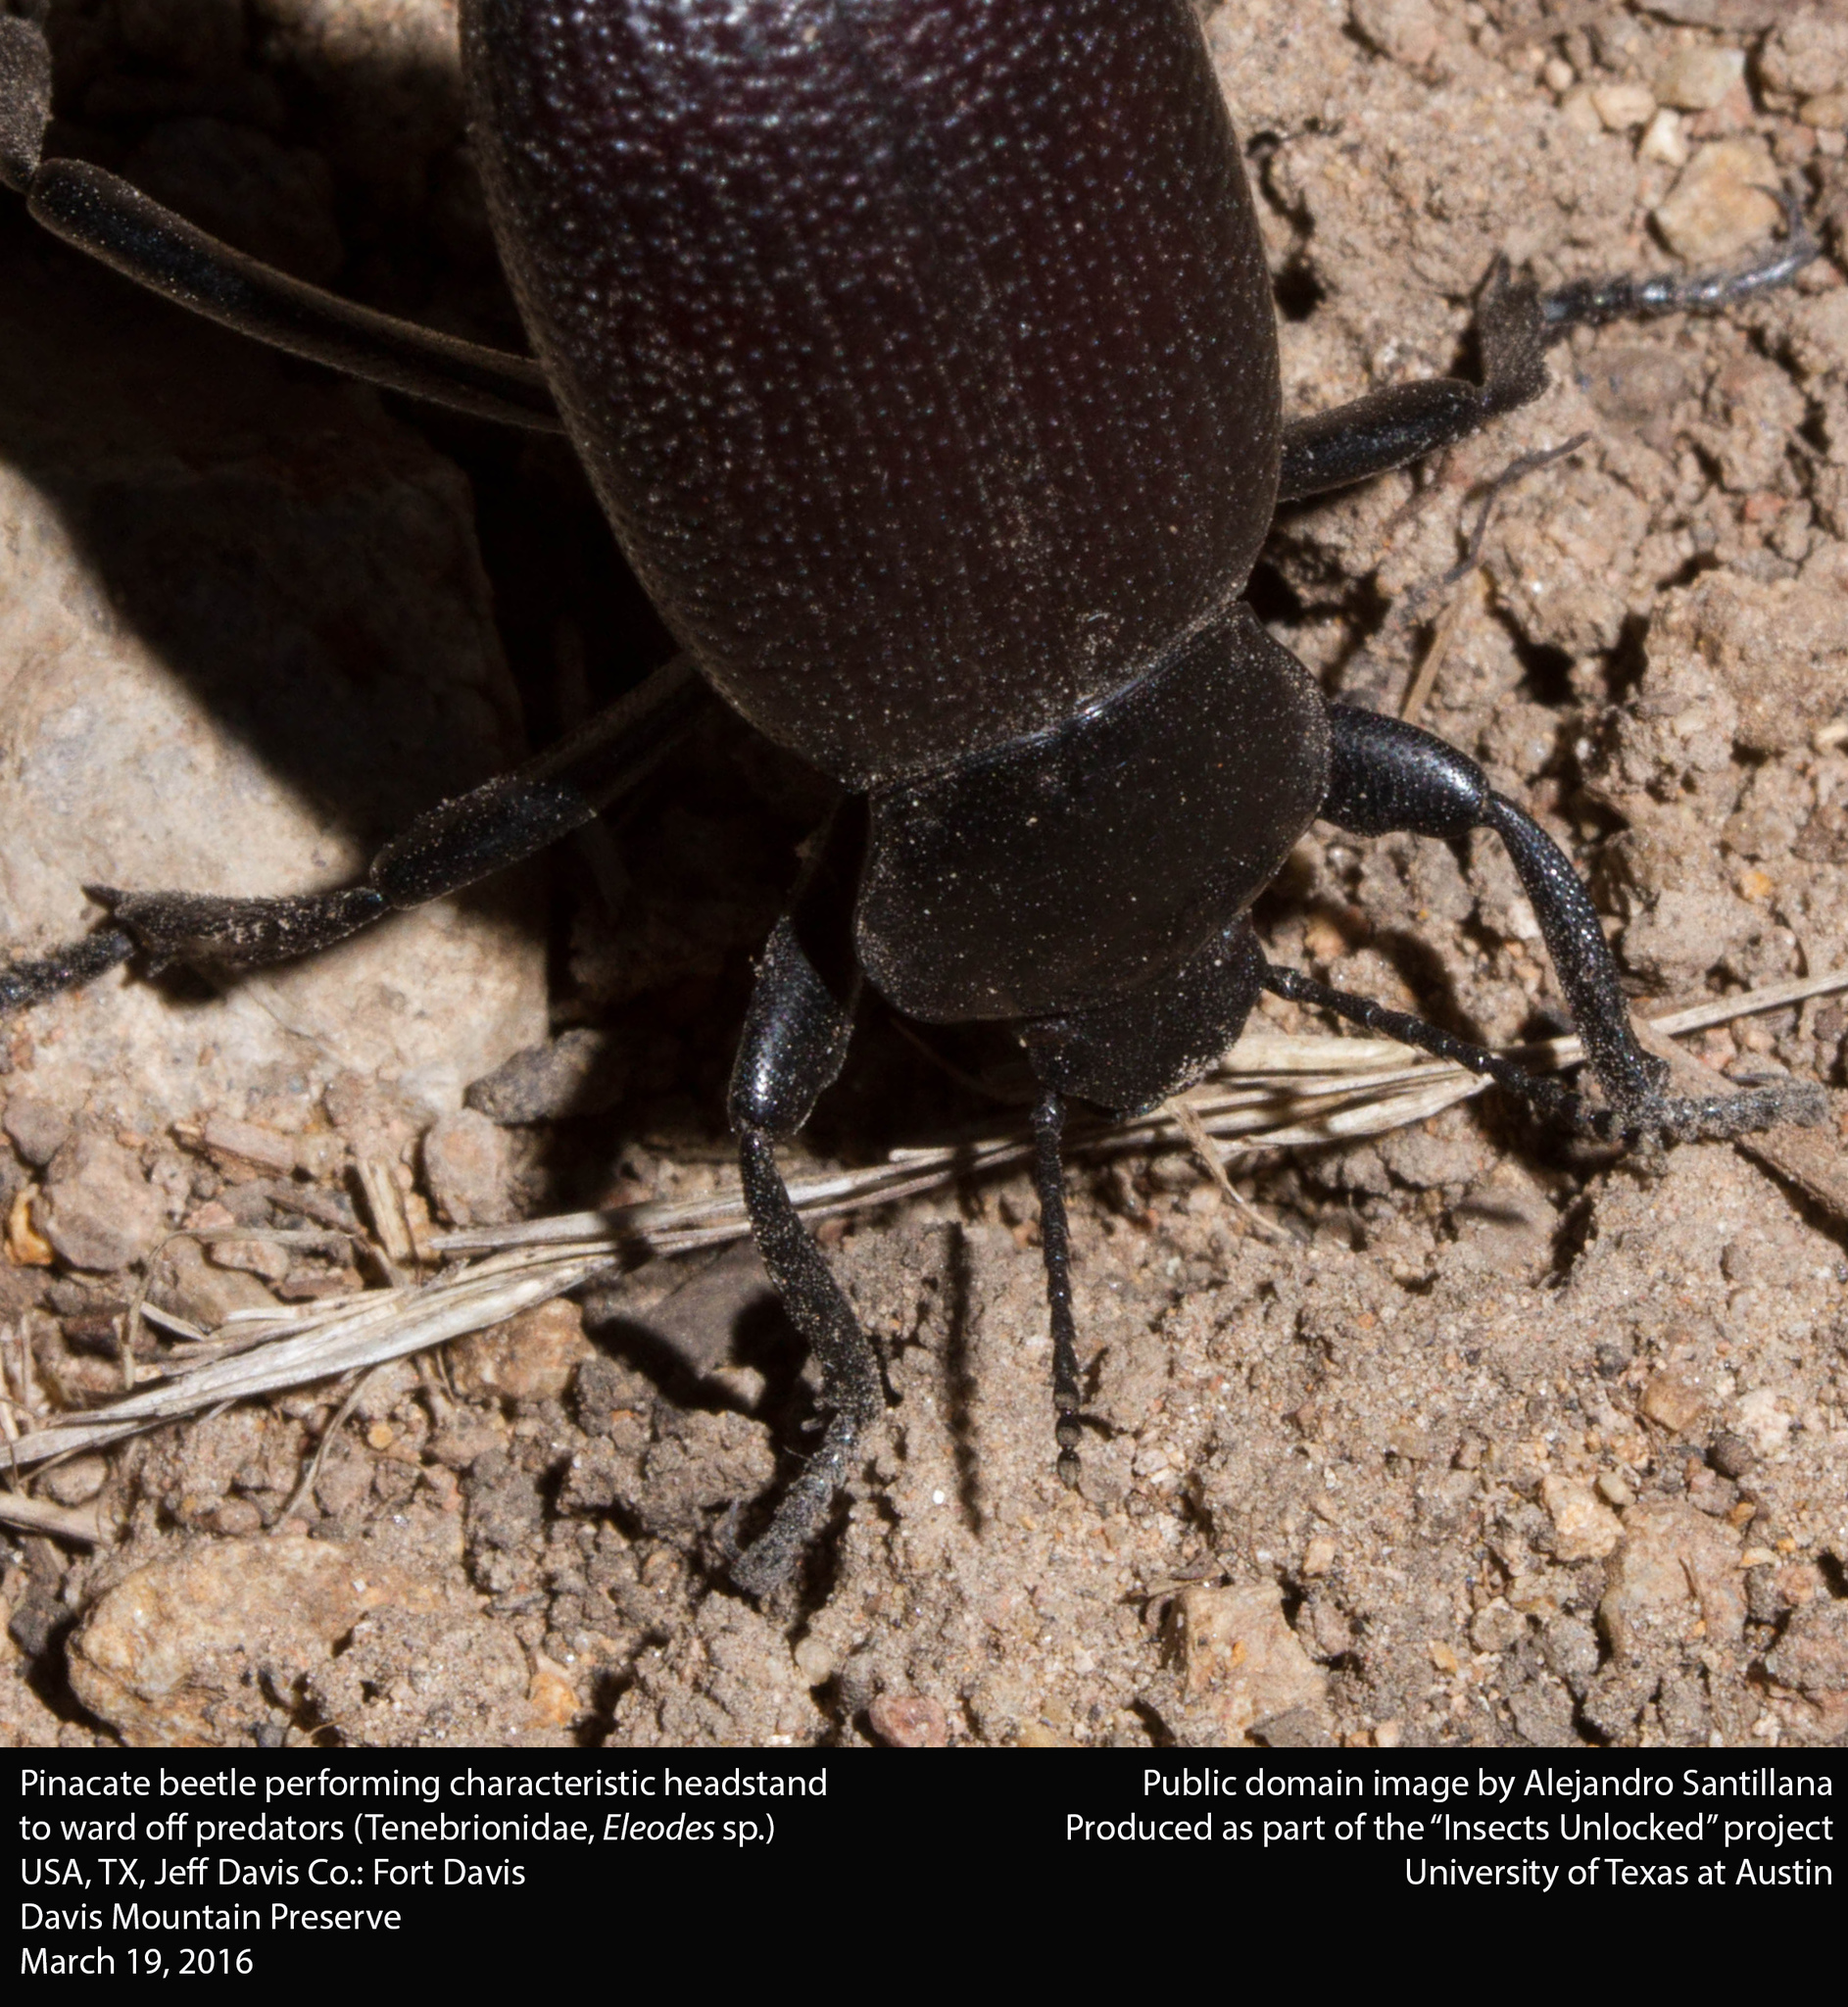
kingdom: Animalia
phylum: Arthropoda
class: Insecta
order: Coleoptera
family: Tenebrionidae
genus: Eleodes
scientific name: Eleodes obscura
